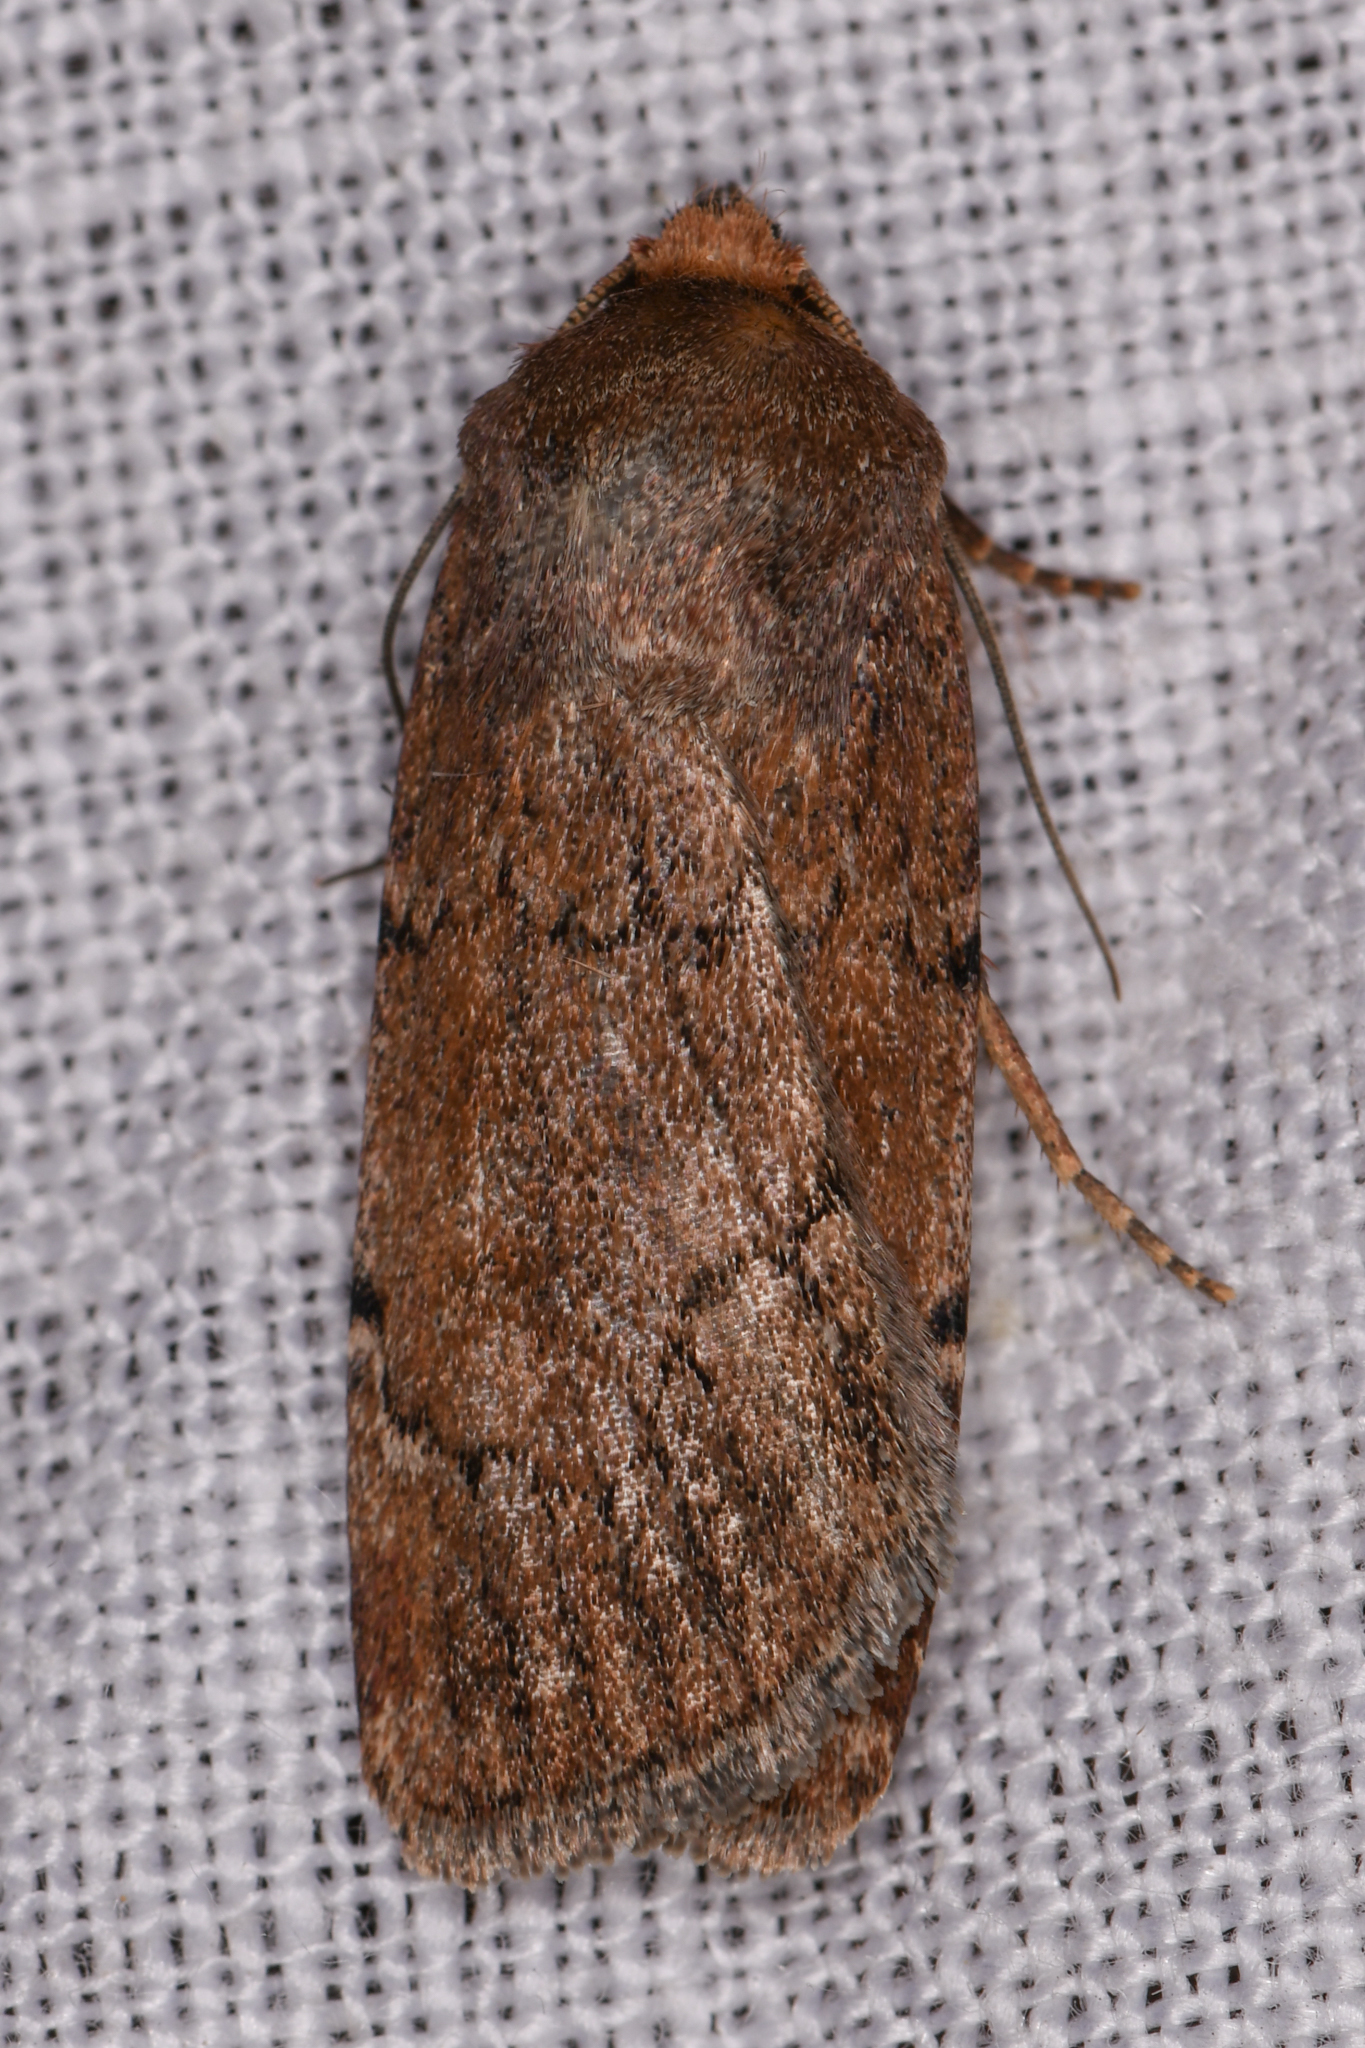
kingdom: Animalia
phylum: Arthropoda
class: Insecta
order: Lepidoptera
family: Noctuidae
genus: Tesagrotis
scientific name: Tesagrotis atrifrons
